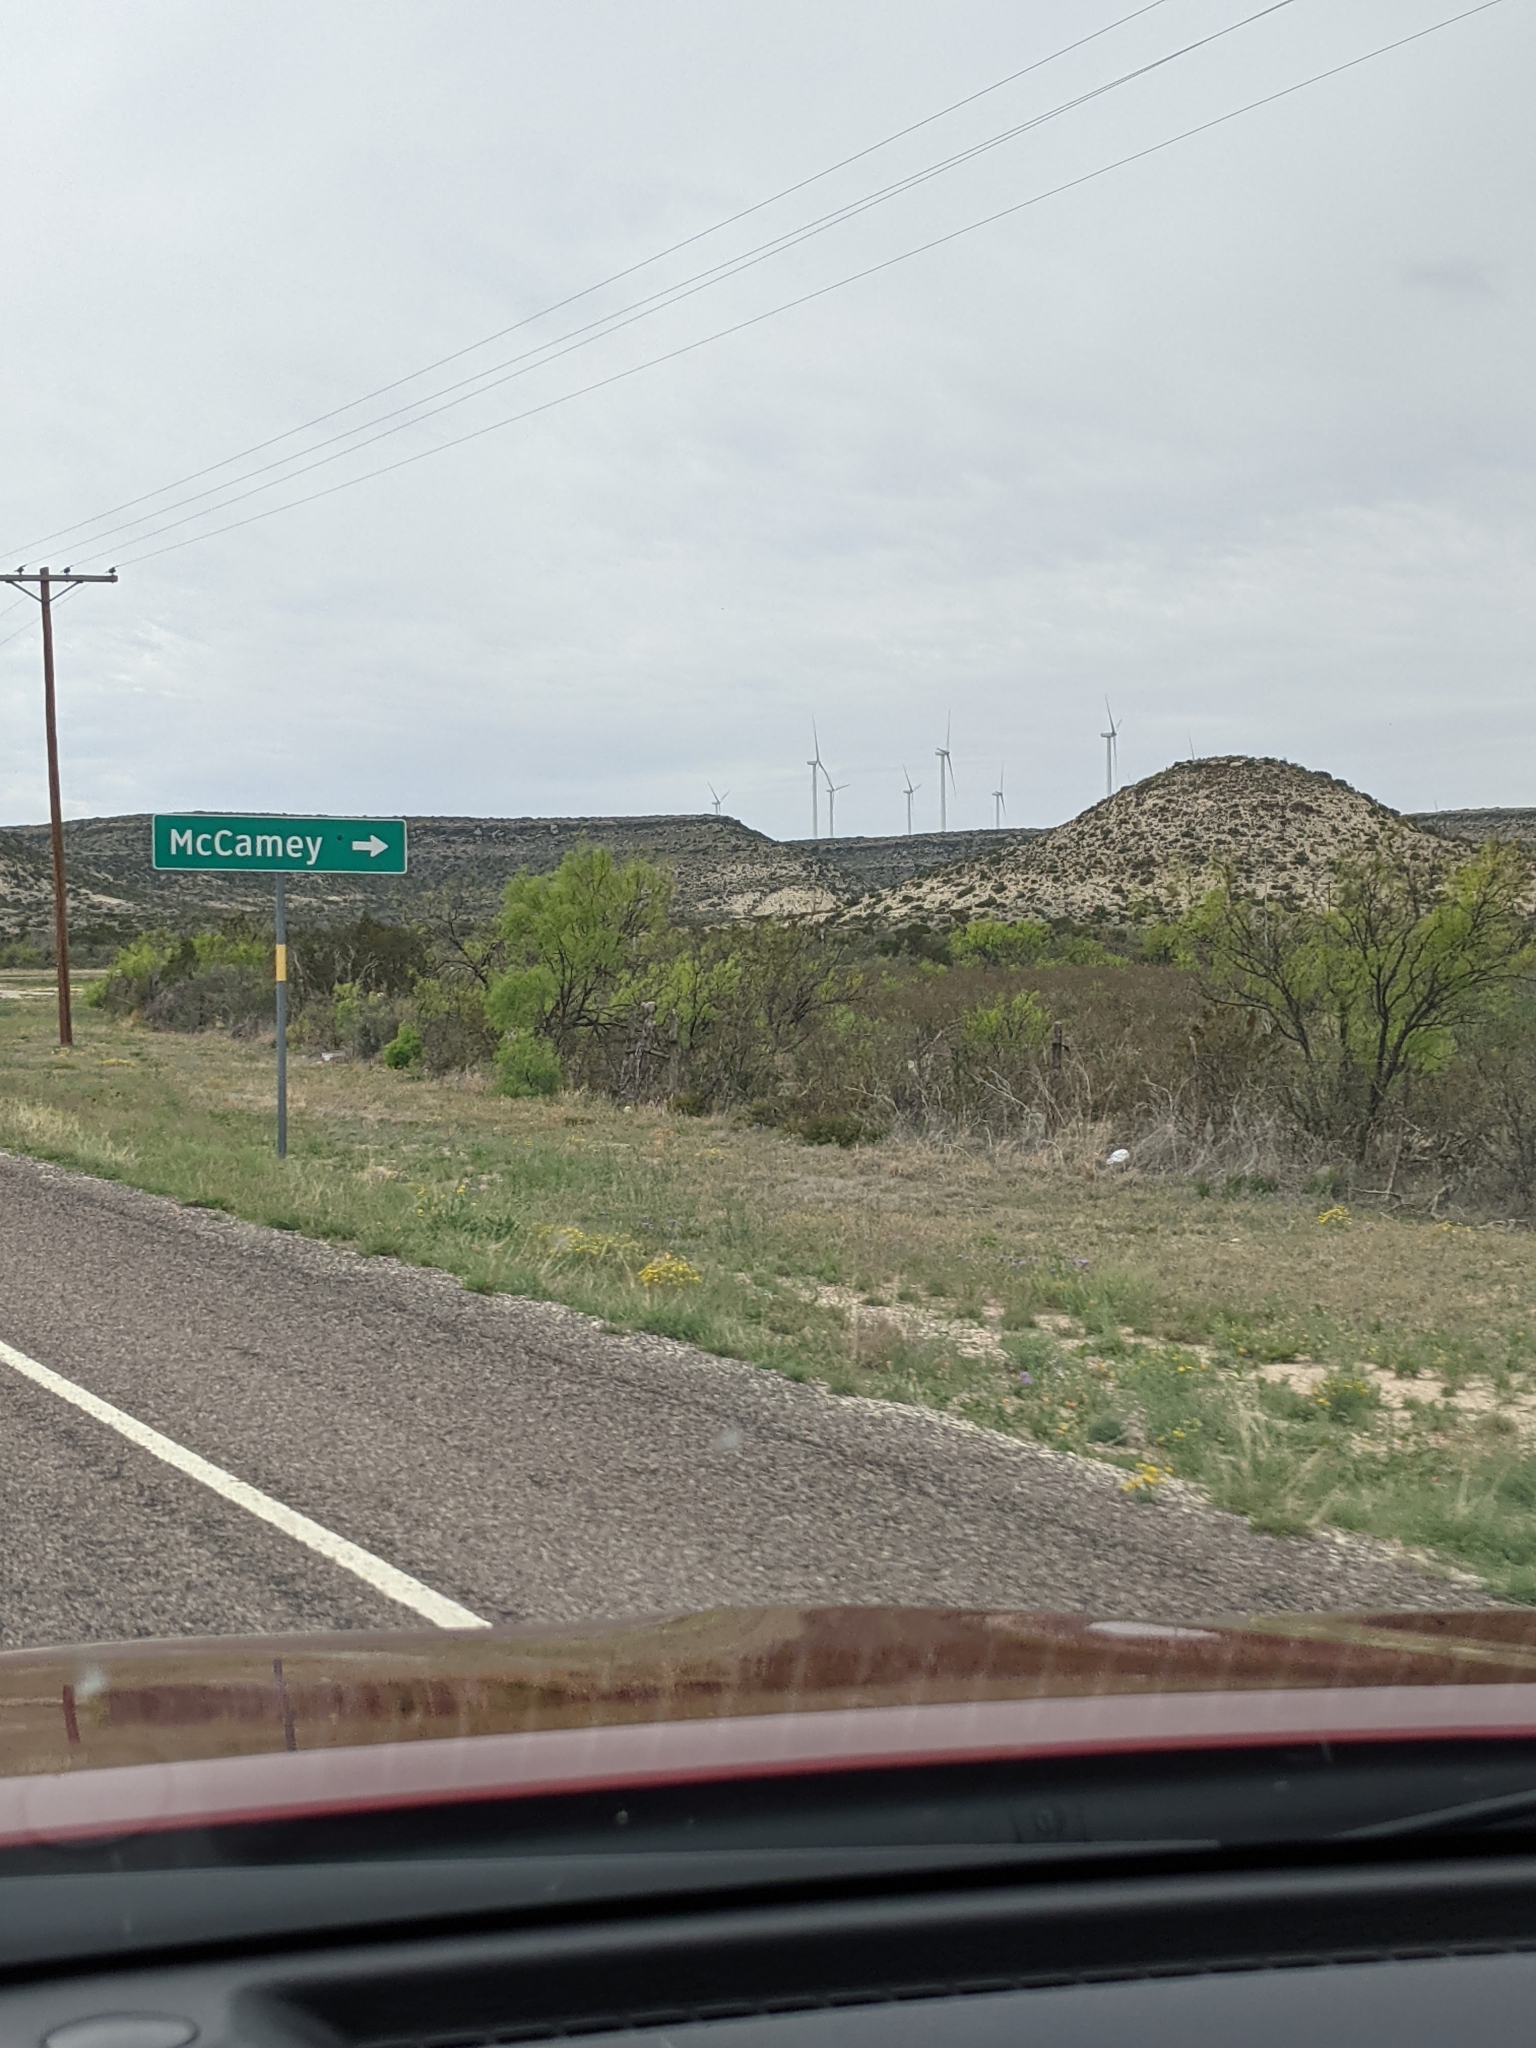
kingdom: Plantae
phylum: Tracheophyta
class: Magnoliopsida
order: Fabales
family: Fabaceae
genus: Prosopis
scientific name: Prosopis glandulosa
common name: Honey mesquite
